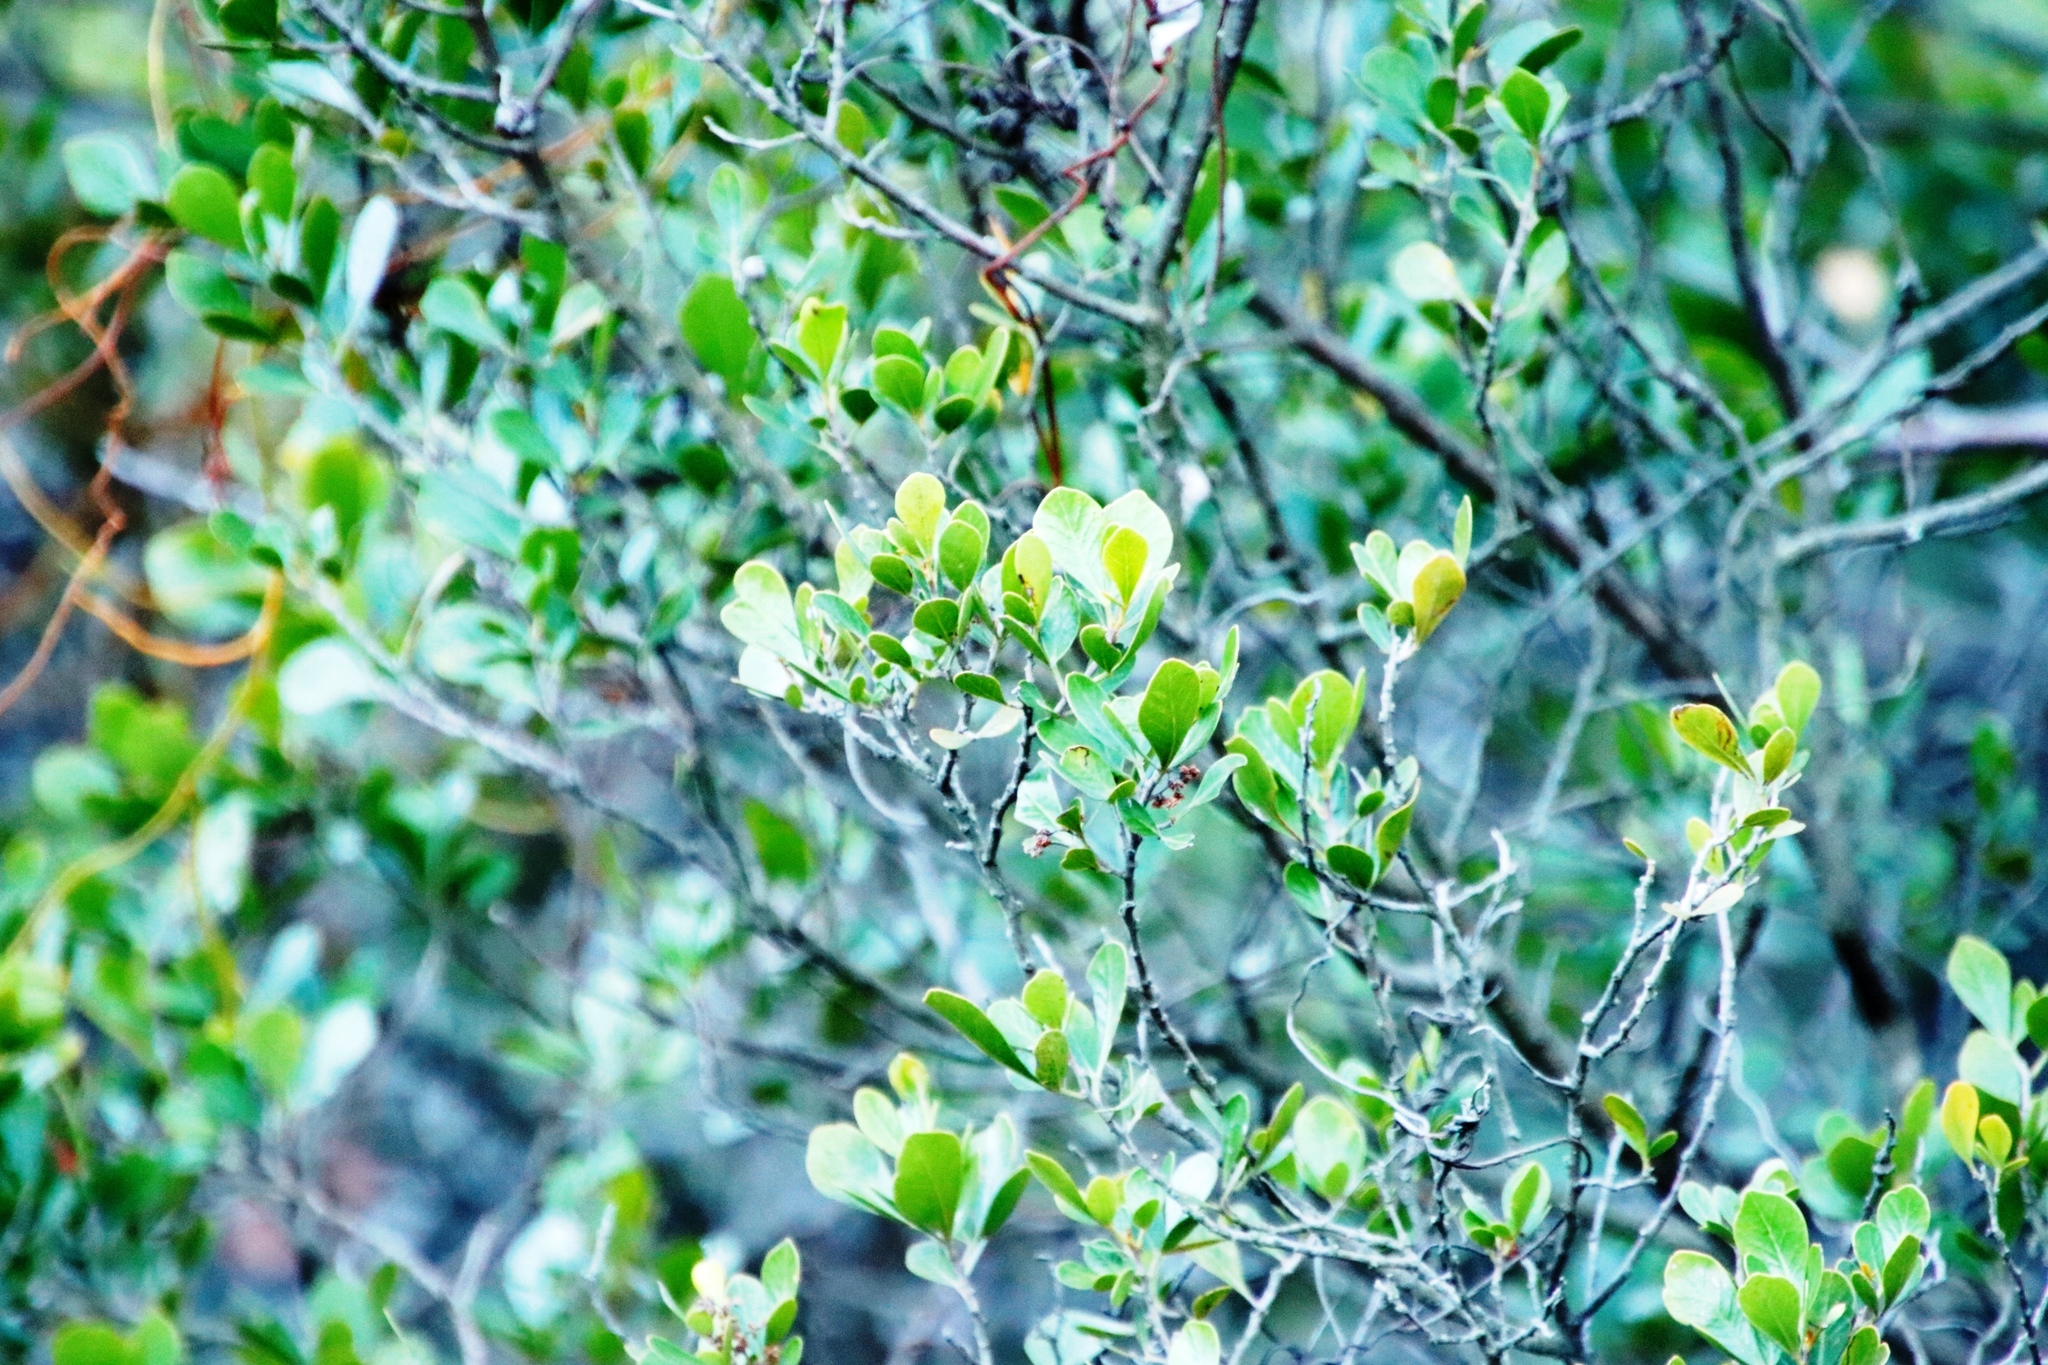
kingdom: Plantae
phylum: Tracheophyta
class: Magnoliopsida
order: Sapindales
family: Anacardiaceae
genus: Searsia
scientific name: Searsia lucida
